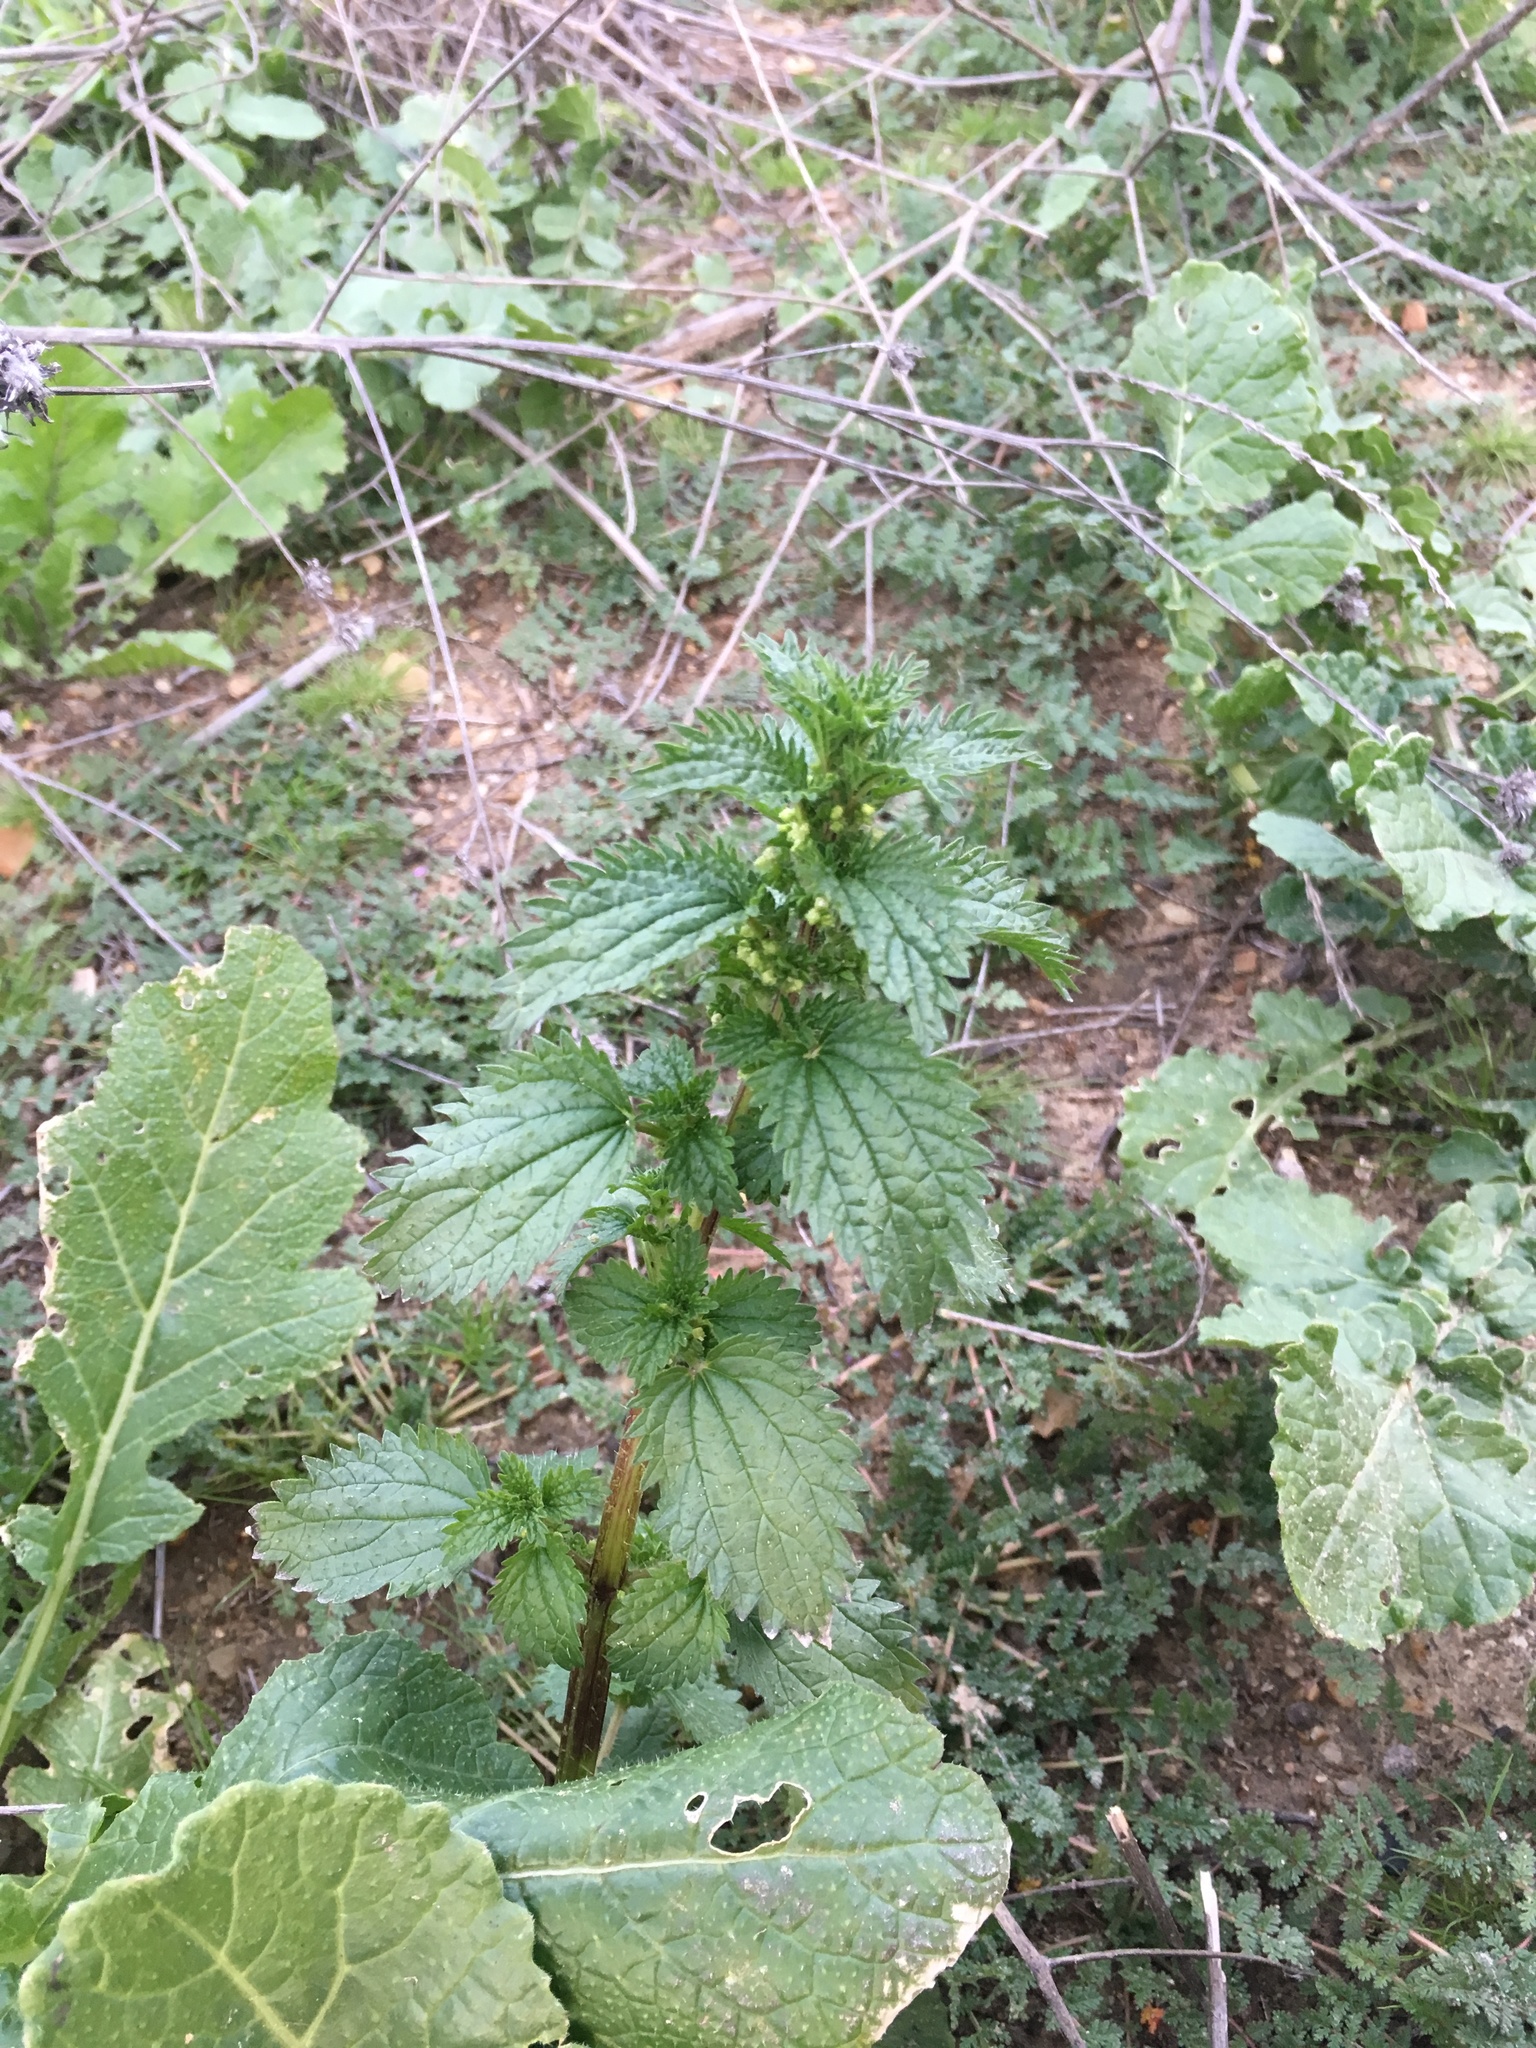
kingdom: Plantae
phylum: Tracheophyta
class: Magnoliopsida
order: Rosales
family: Urticaceae
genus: Urtica
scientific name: Urtica urens
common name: Dwarf nettle
